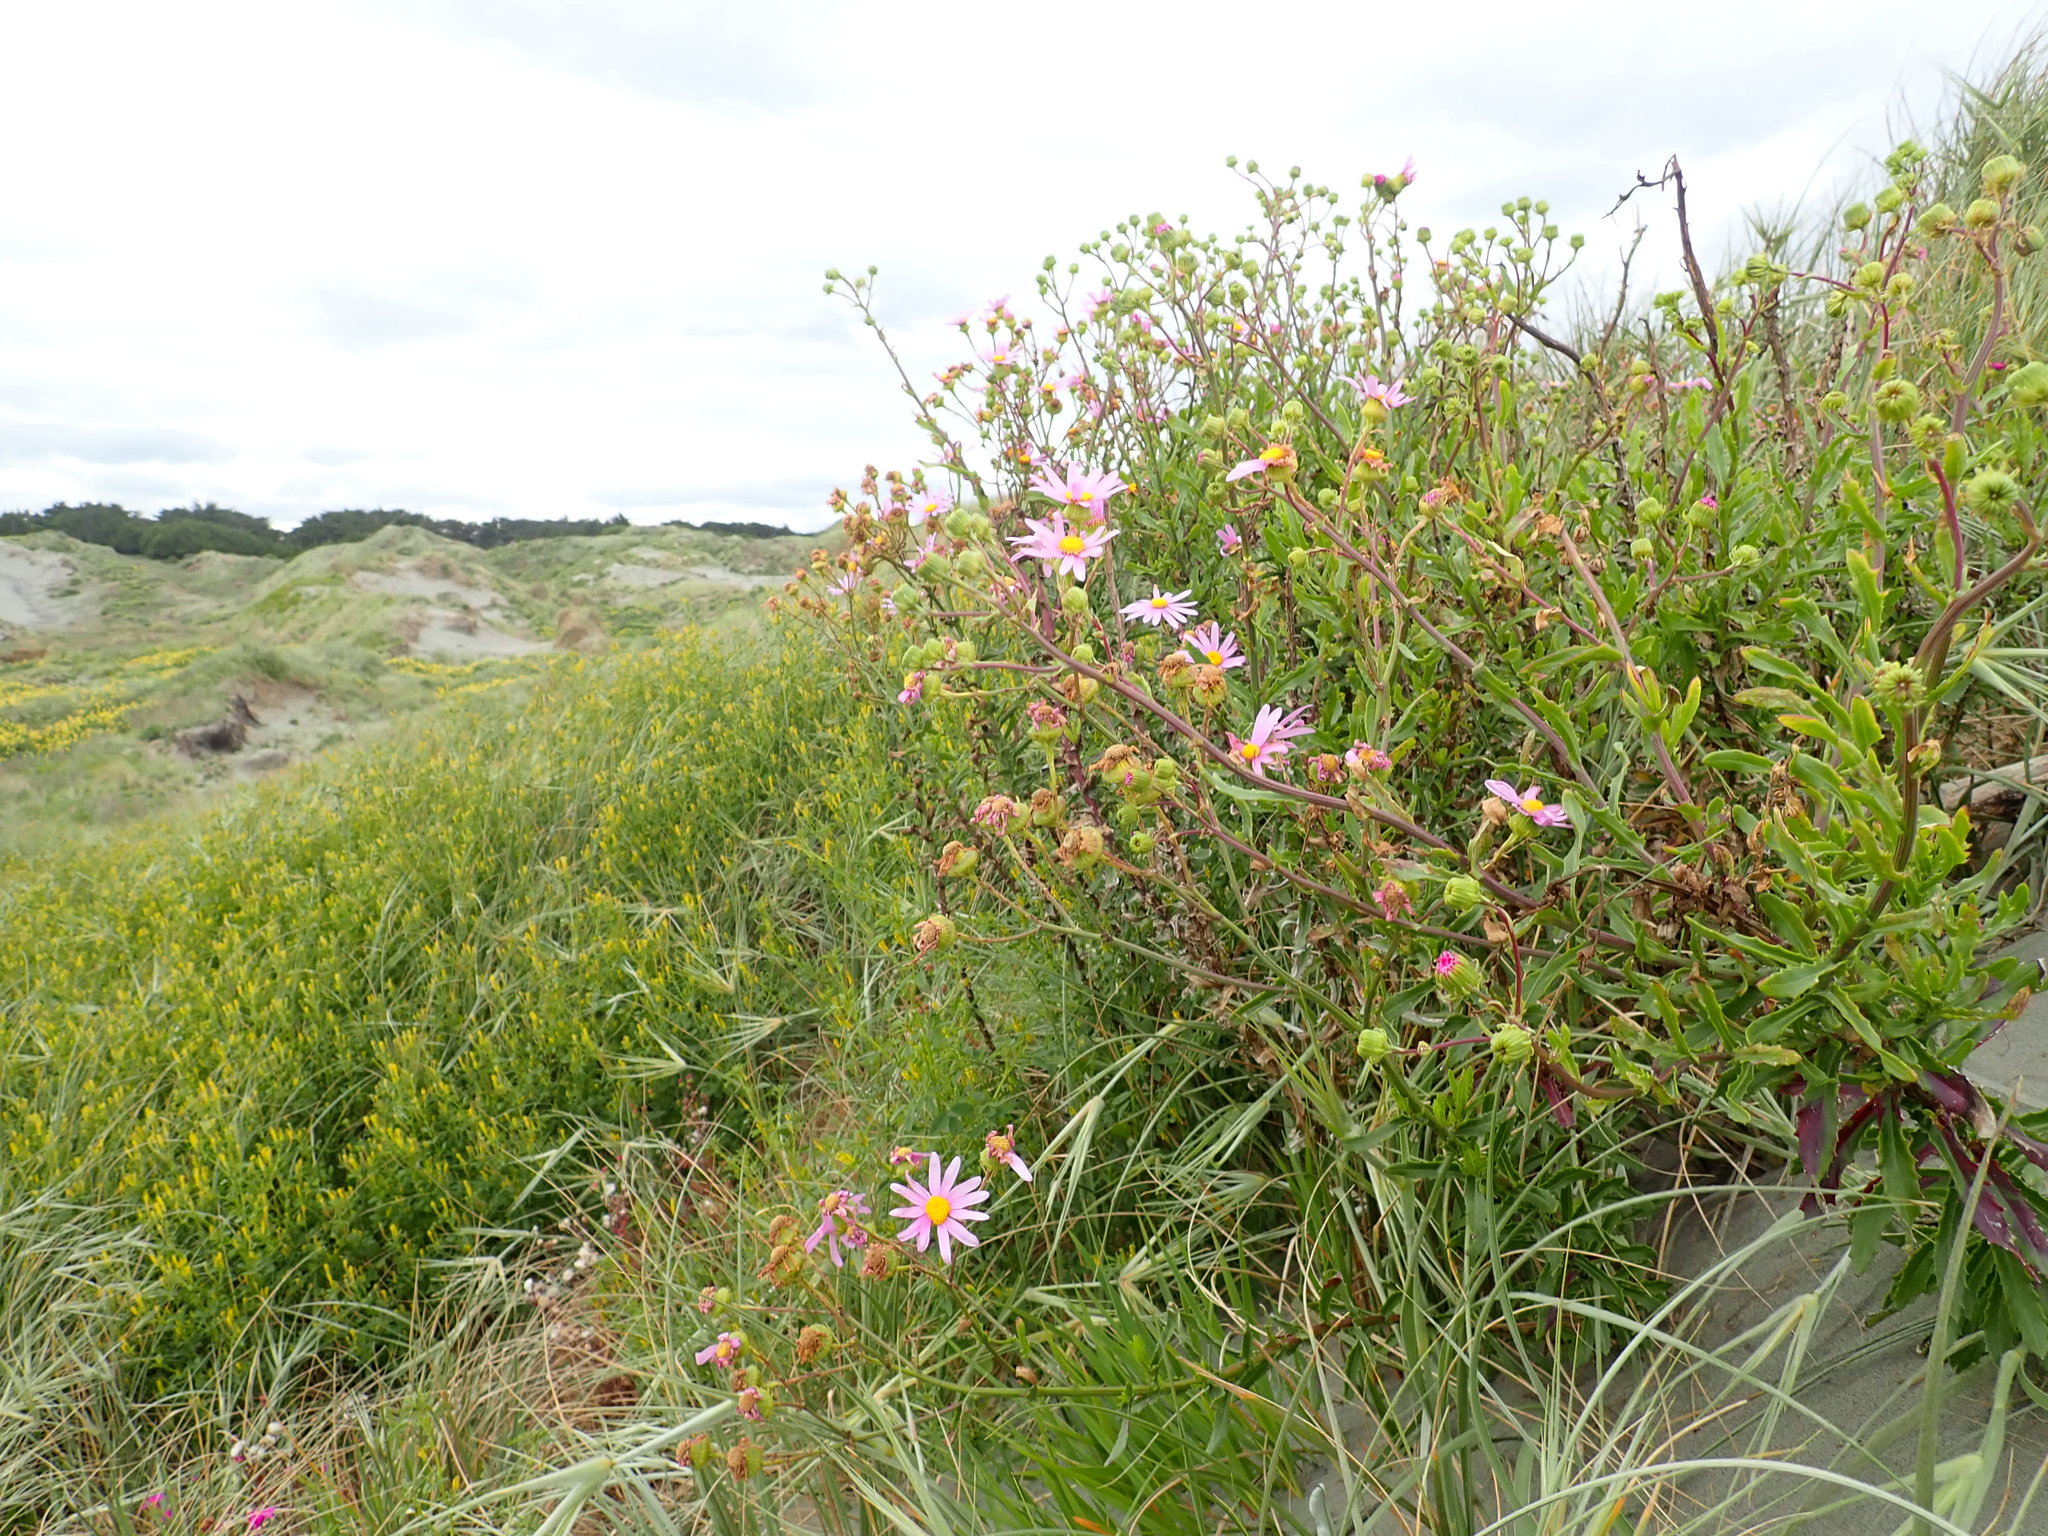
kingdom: Plantae
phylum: Tracheophyta
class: Magnoliopsida
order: Asterales
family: Asteraceae
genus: Senecio
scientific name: Senecio glastifolius
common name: Woad-leaved ragwort
